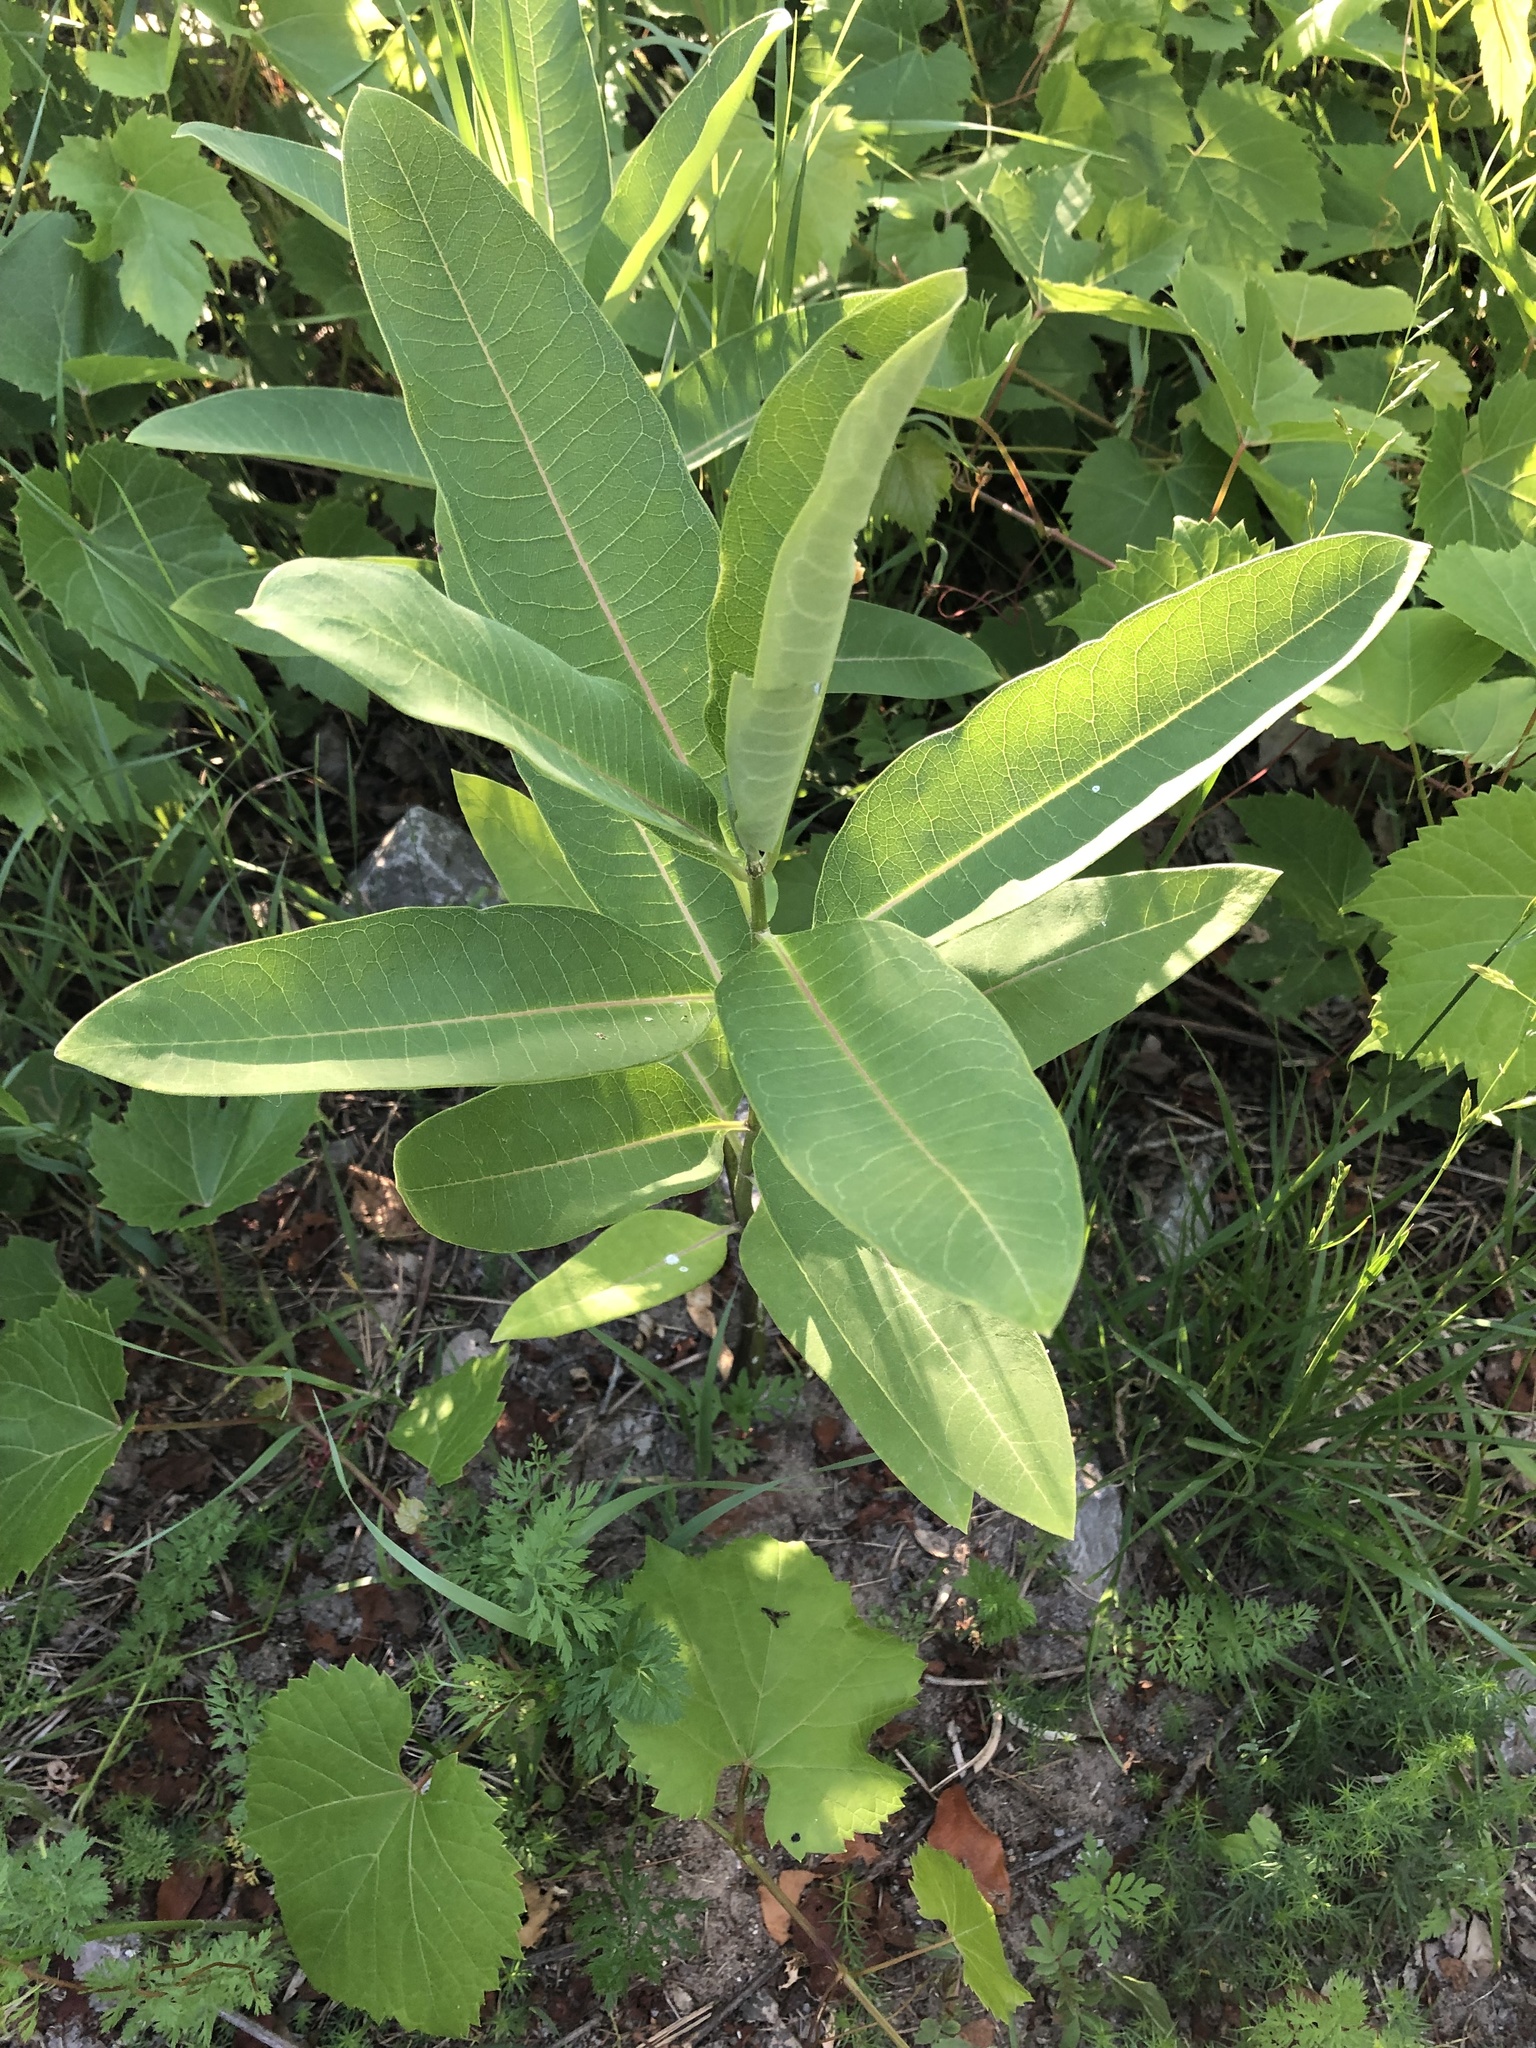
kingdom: Plantae
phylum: Tracheophyta
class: Magnoliopsida
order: Gentianales
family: Apocynaceae
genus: Asclepias
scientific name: Asclepias syriaca
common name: Common milkweed
